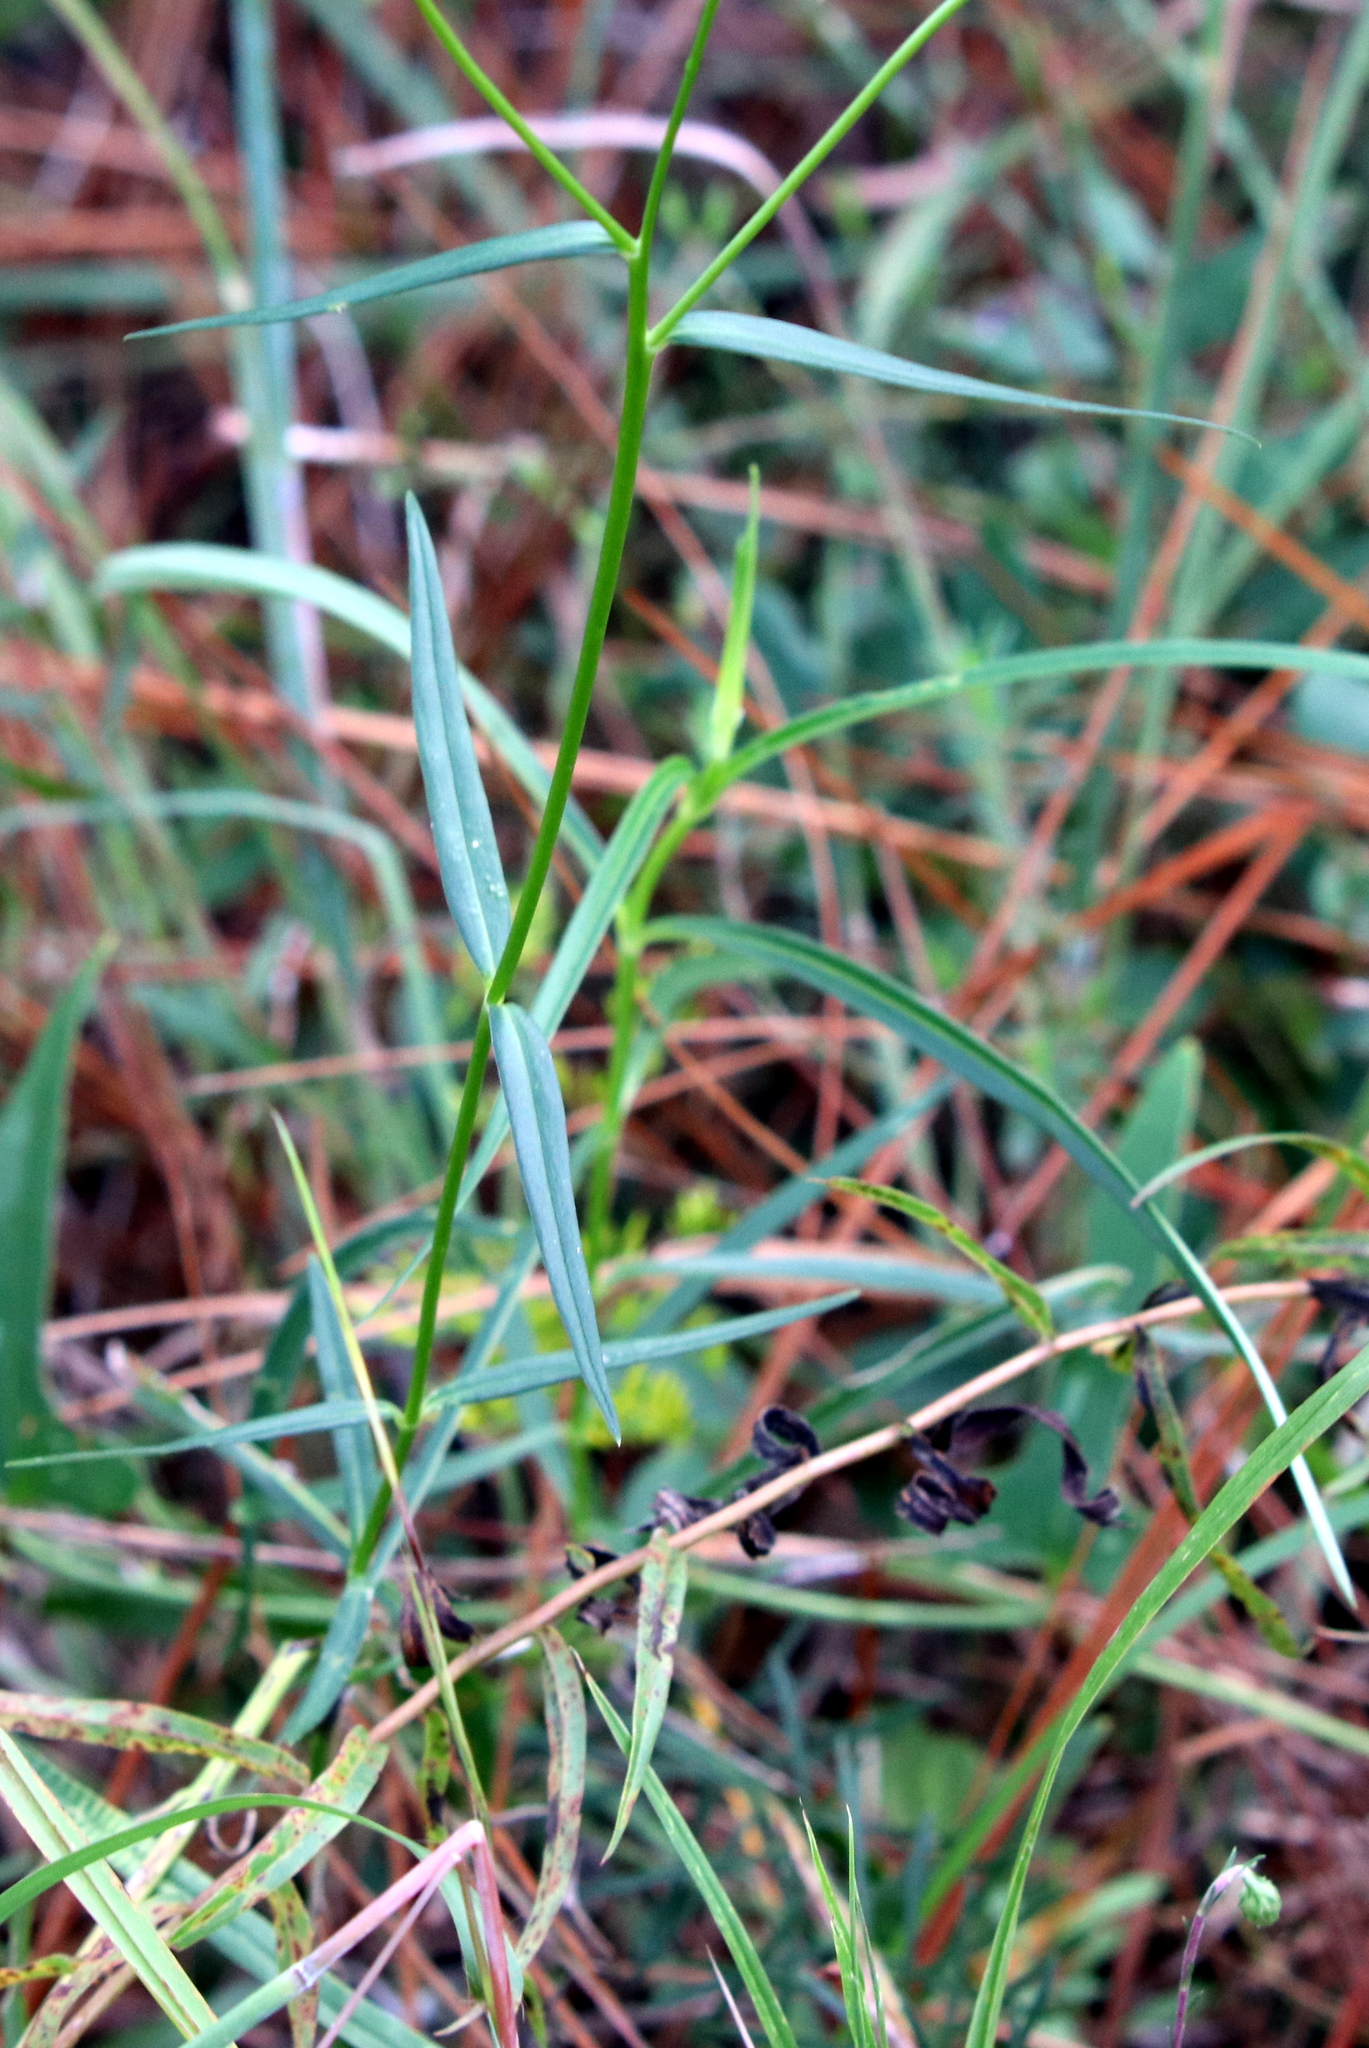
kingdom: Plantae
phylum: Tracheophyta
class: Magnoliopsida
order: Ericales
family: Polemoniaceae
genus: Phlox
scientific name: Phlox carolina
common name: Thick-leaf phlox
